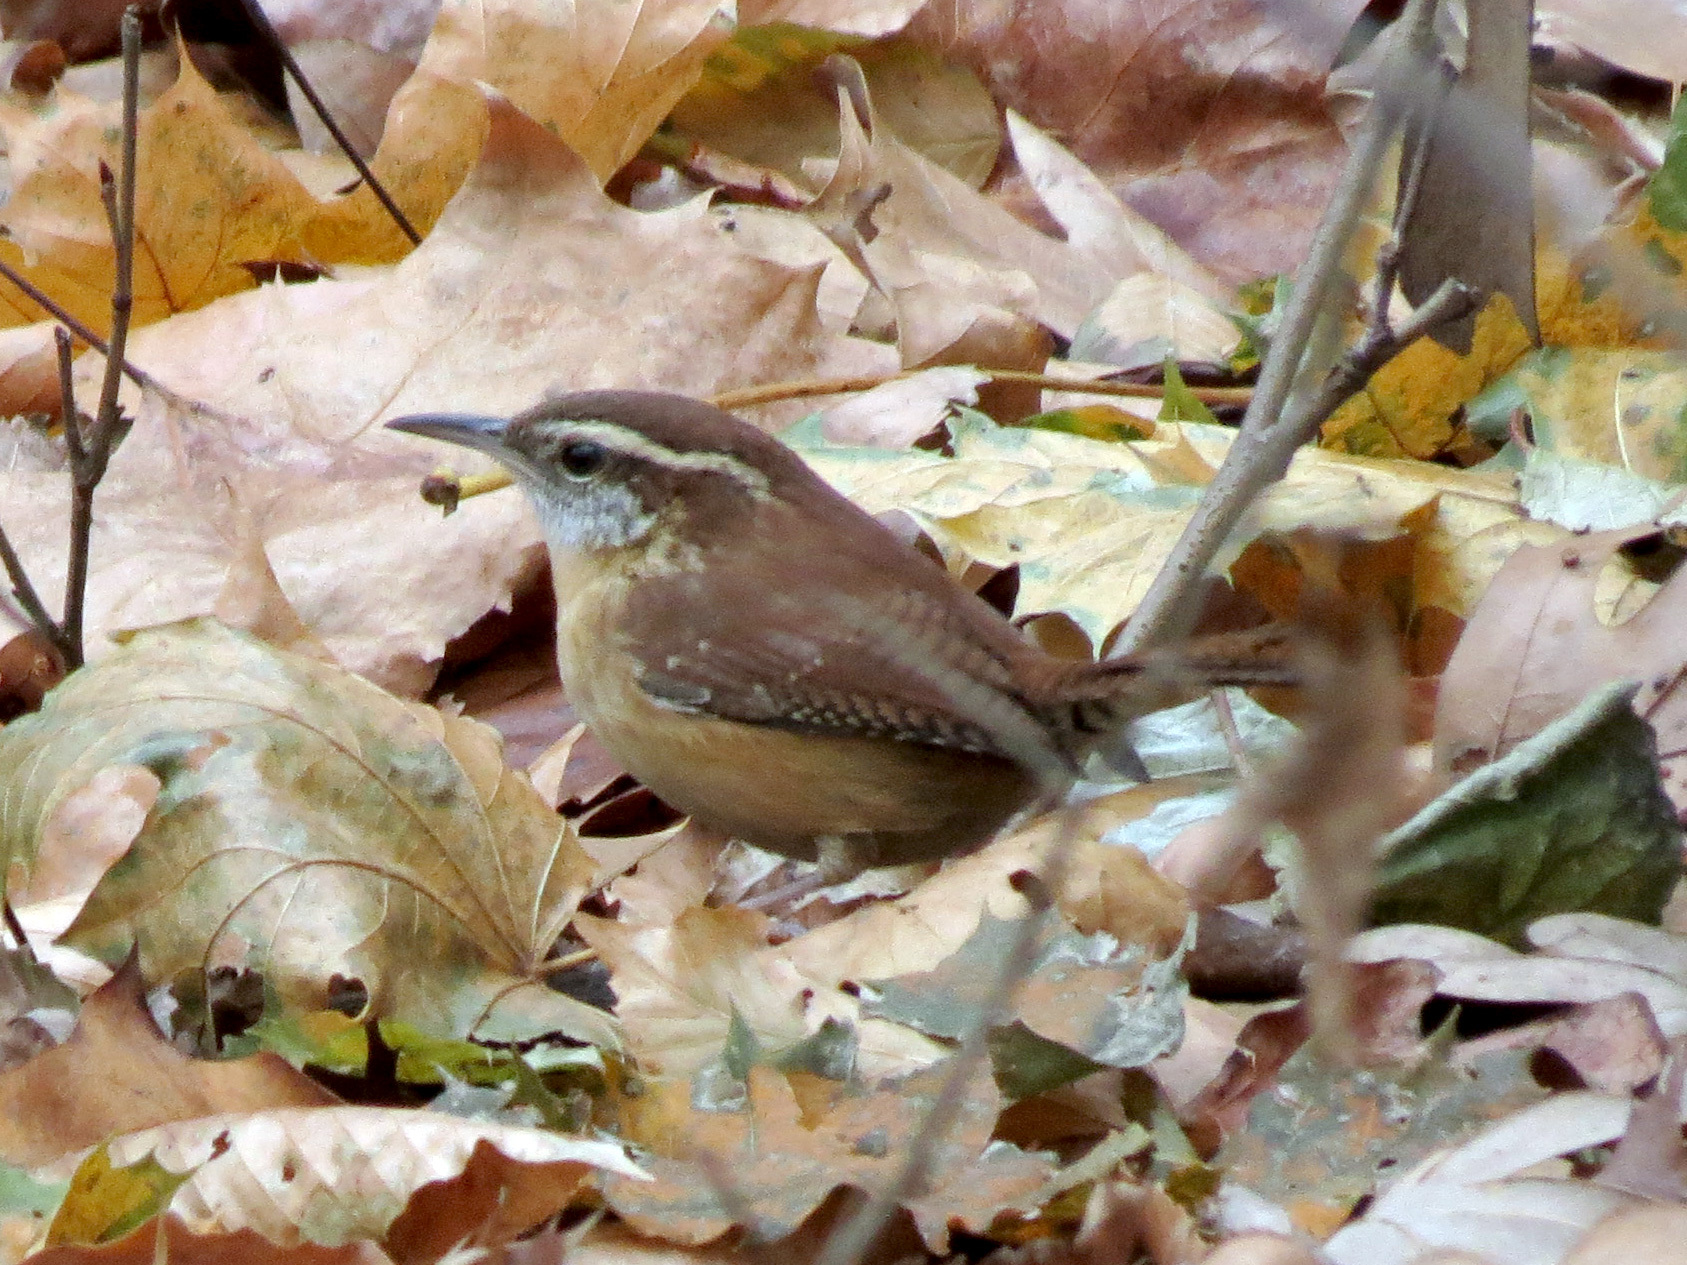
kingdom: Animalia
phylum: Chordata
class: Aves
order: Passeriformes
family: Troglodytidae
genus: Thryothorus
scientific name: Thryothorus ludovicianus
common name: Carolina wren
